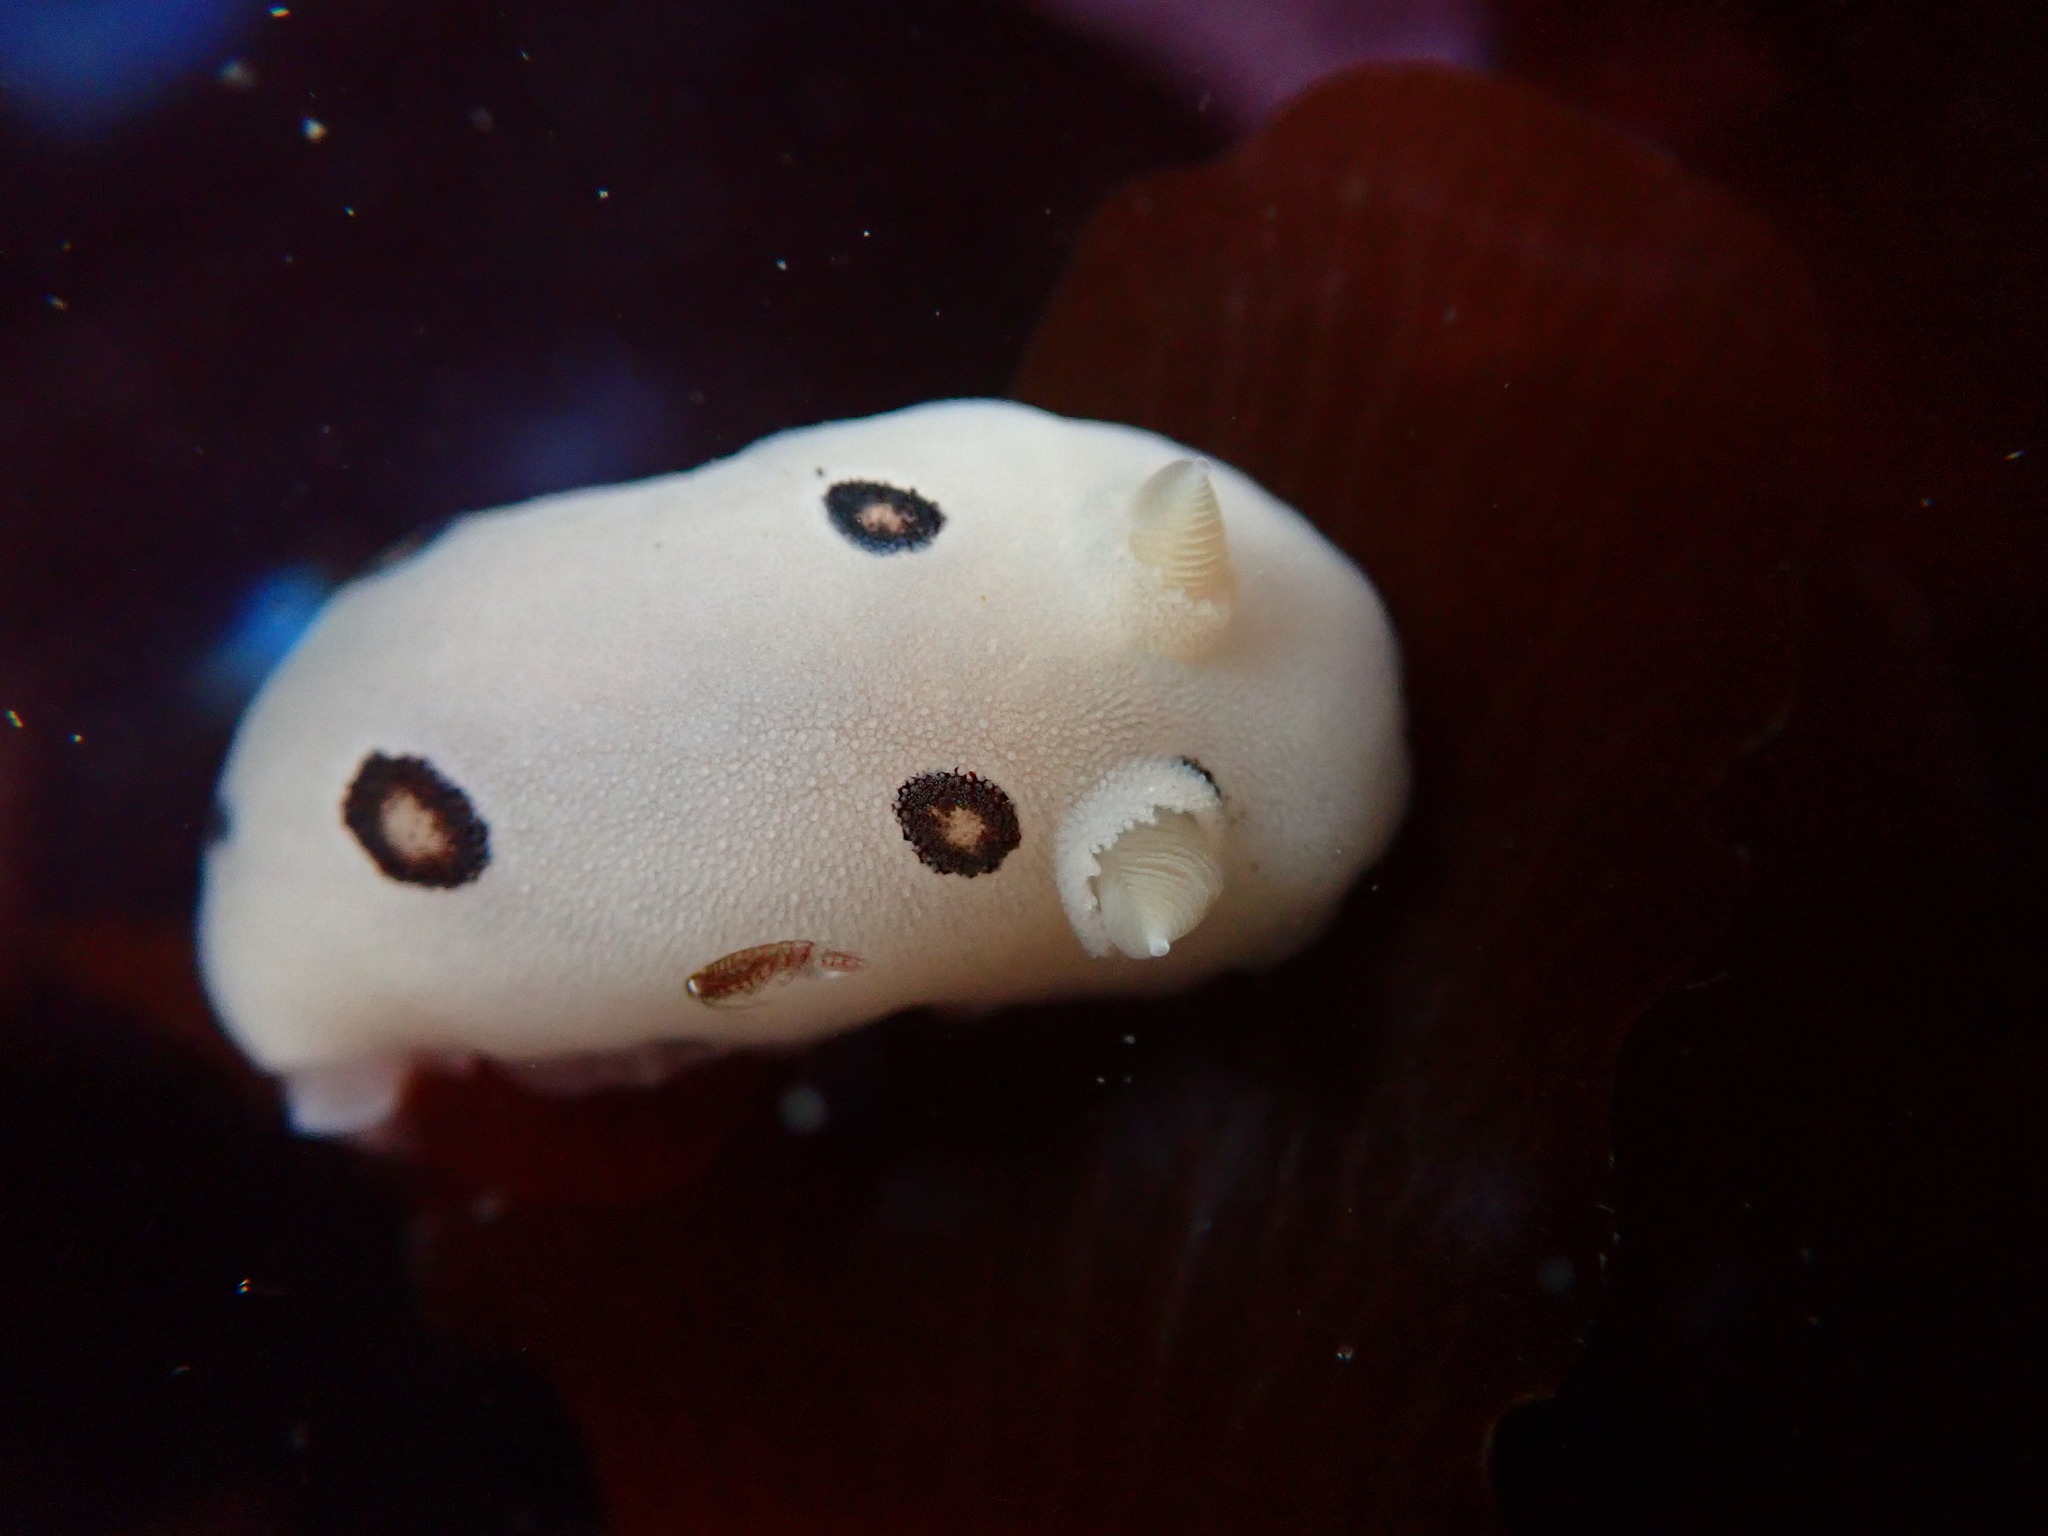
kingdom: Animalia
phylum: Mollusca
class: Gastropoda
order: Nudibranchia
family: Discodorididae
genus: Diaulula
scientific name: Diaulula sandiegensis
